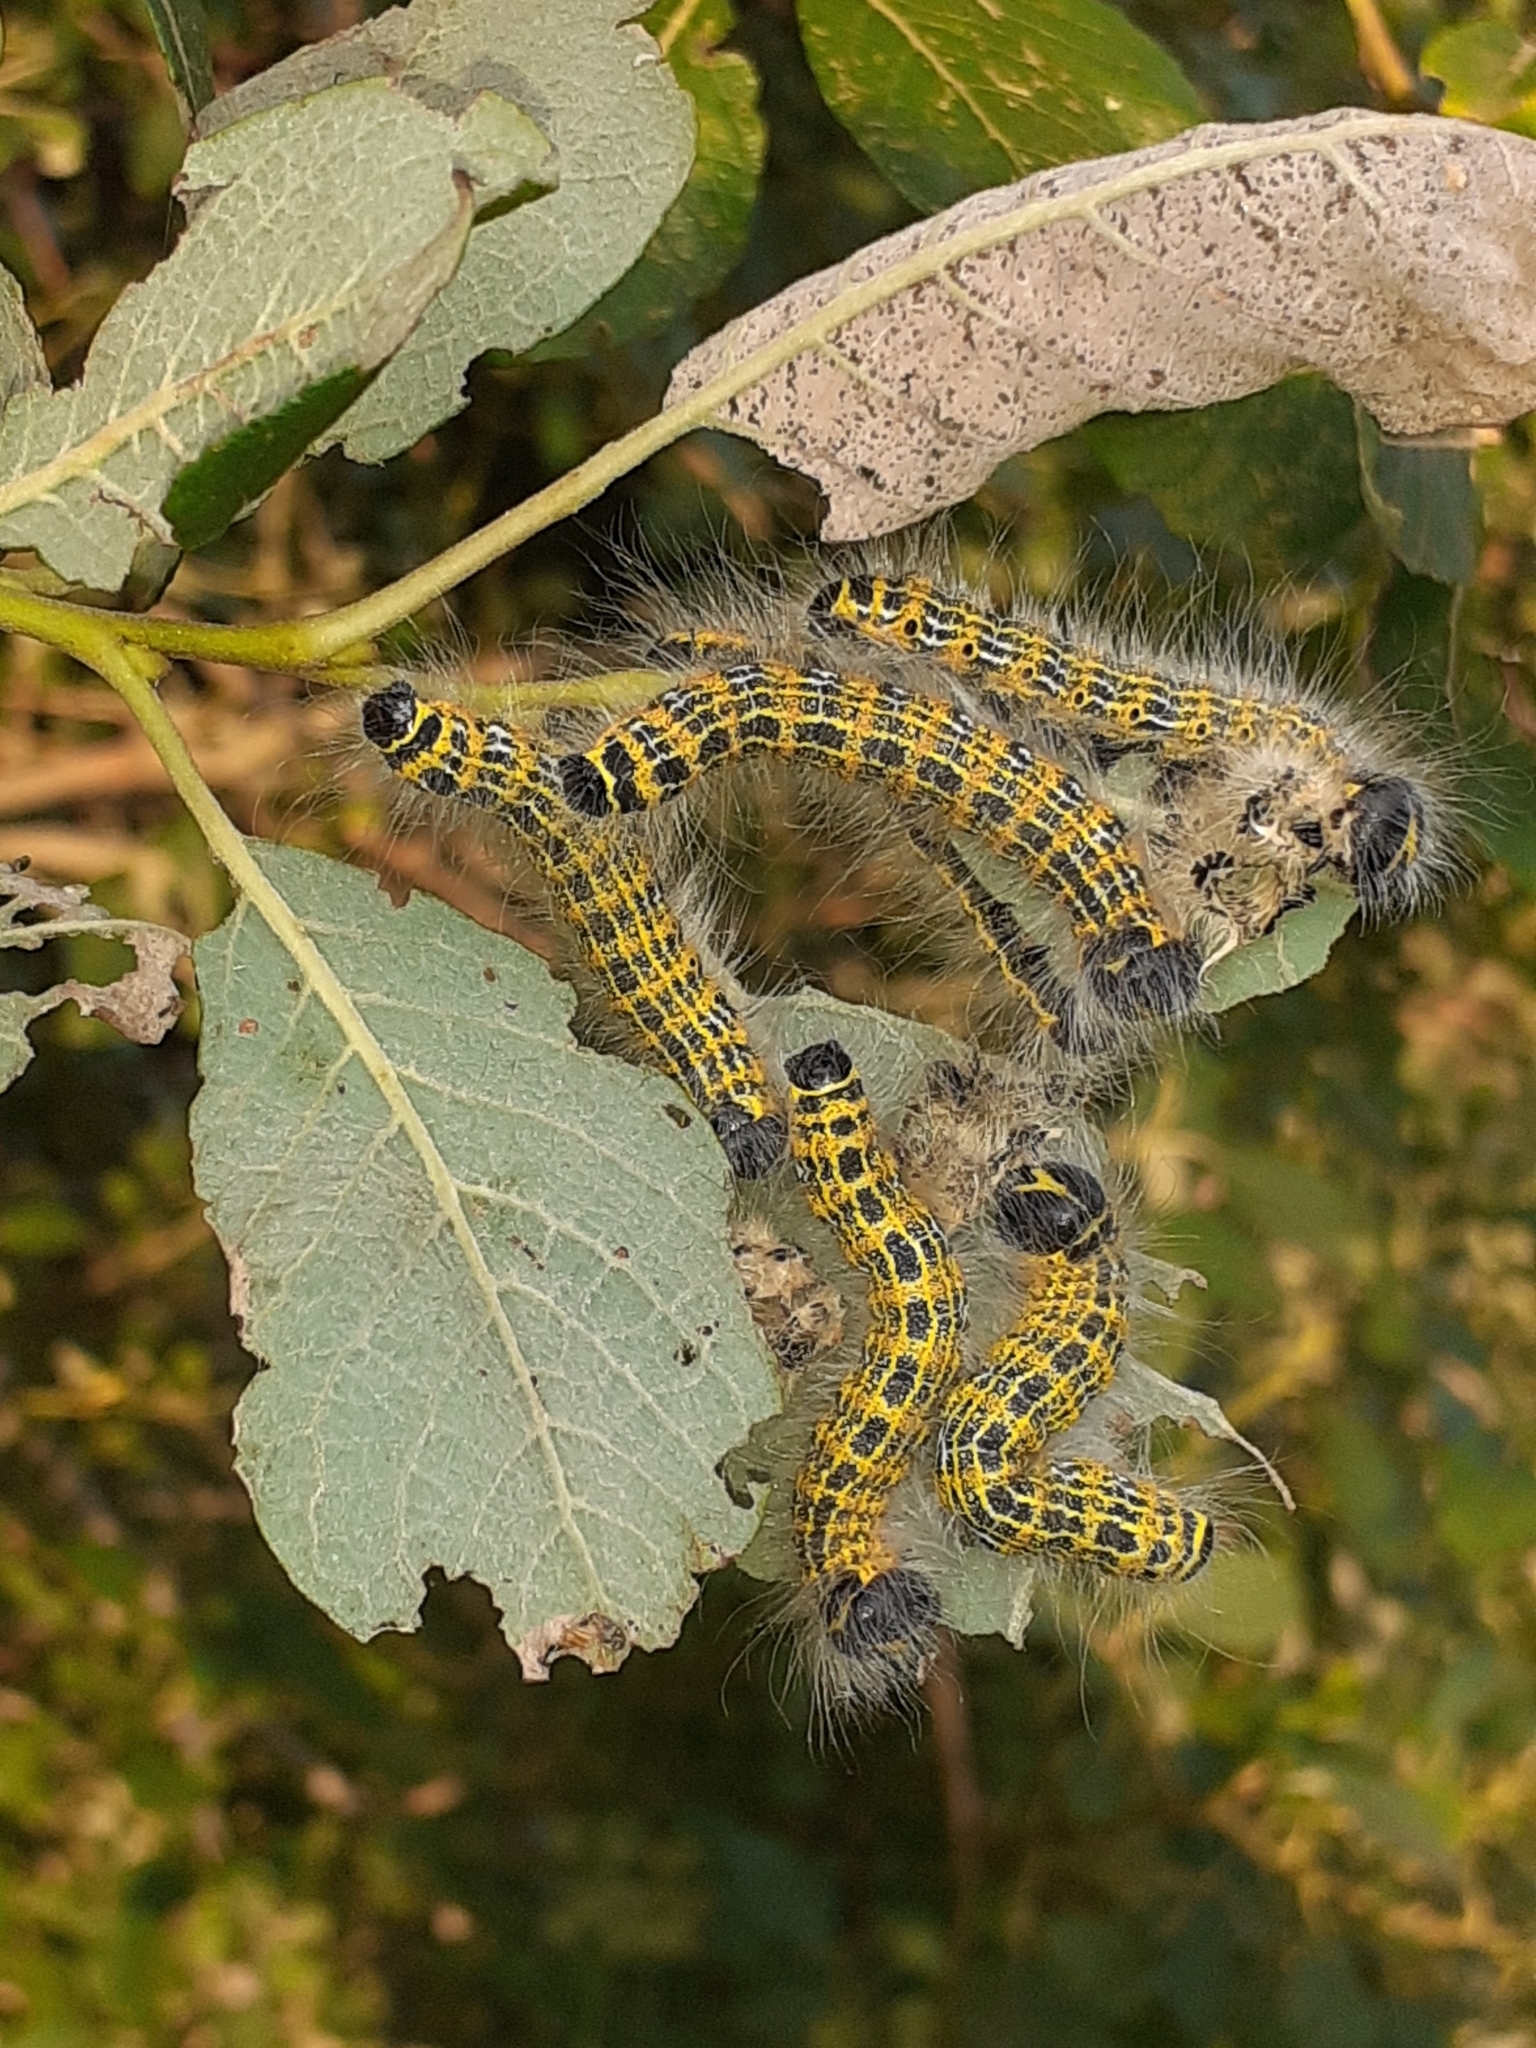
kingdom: Animalia
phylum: Arthropoda
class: Insecta
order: Lepidoptera
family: Notodontidae
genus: Phalera
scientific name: Phalera bucephala
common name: Buff-tip
